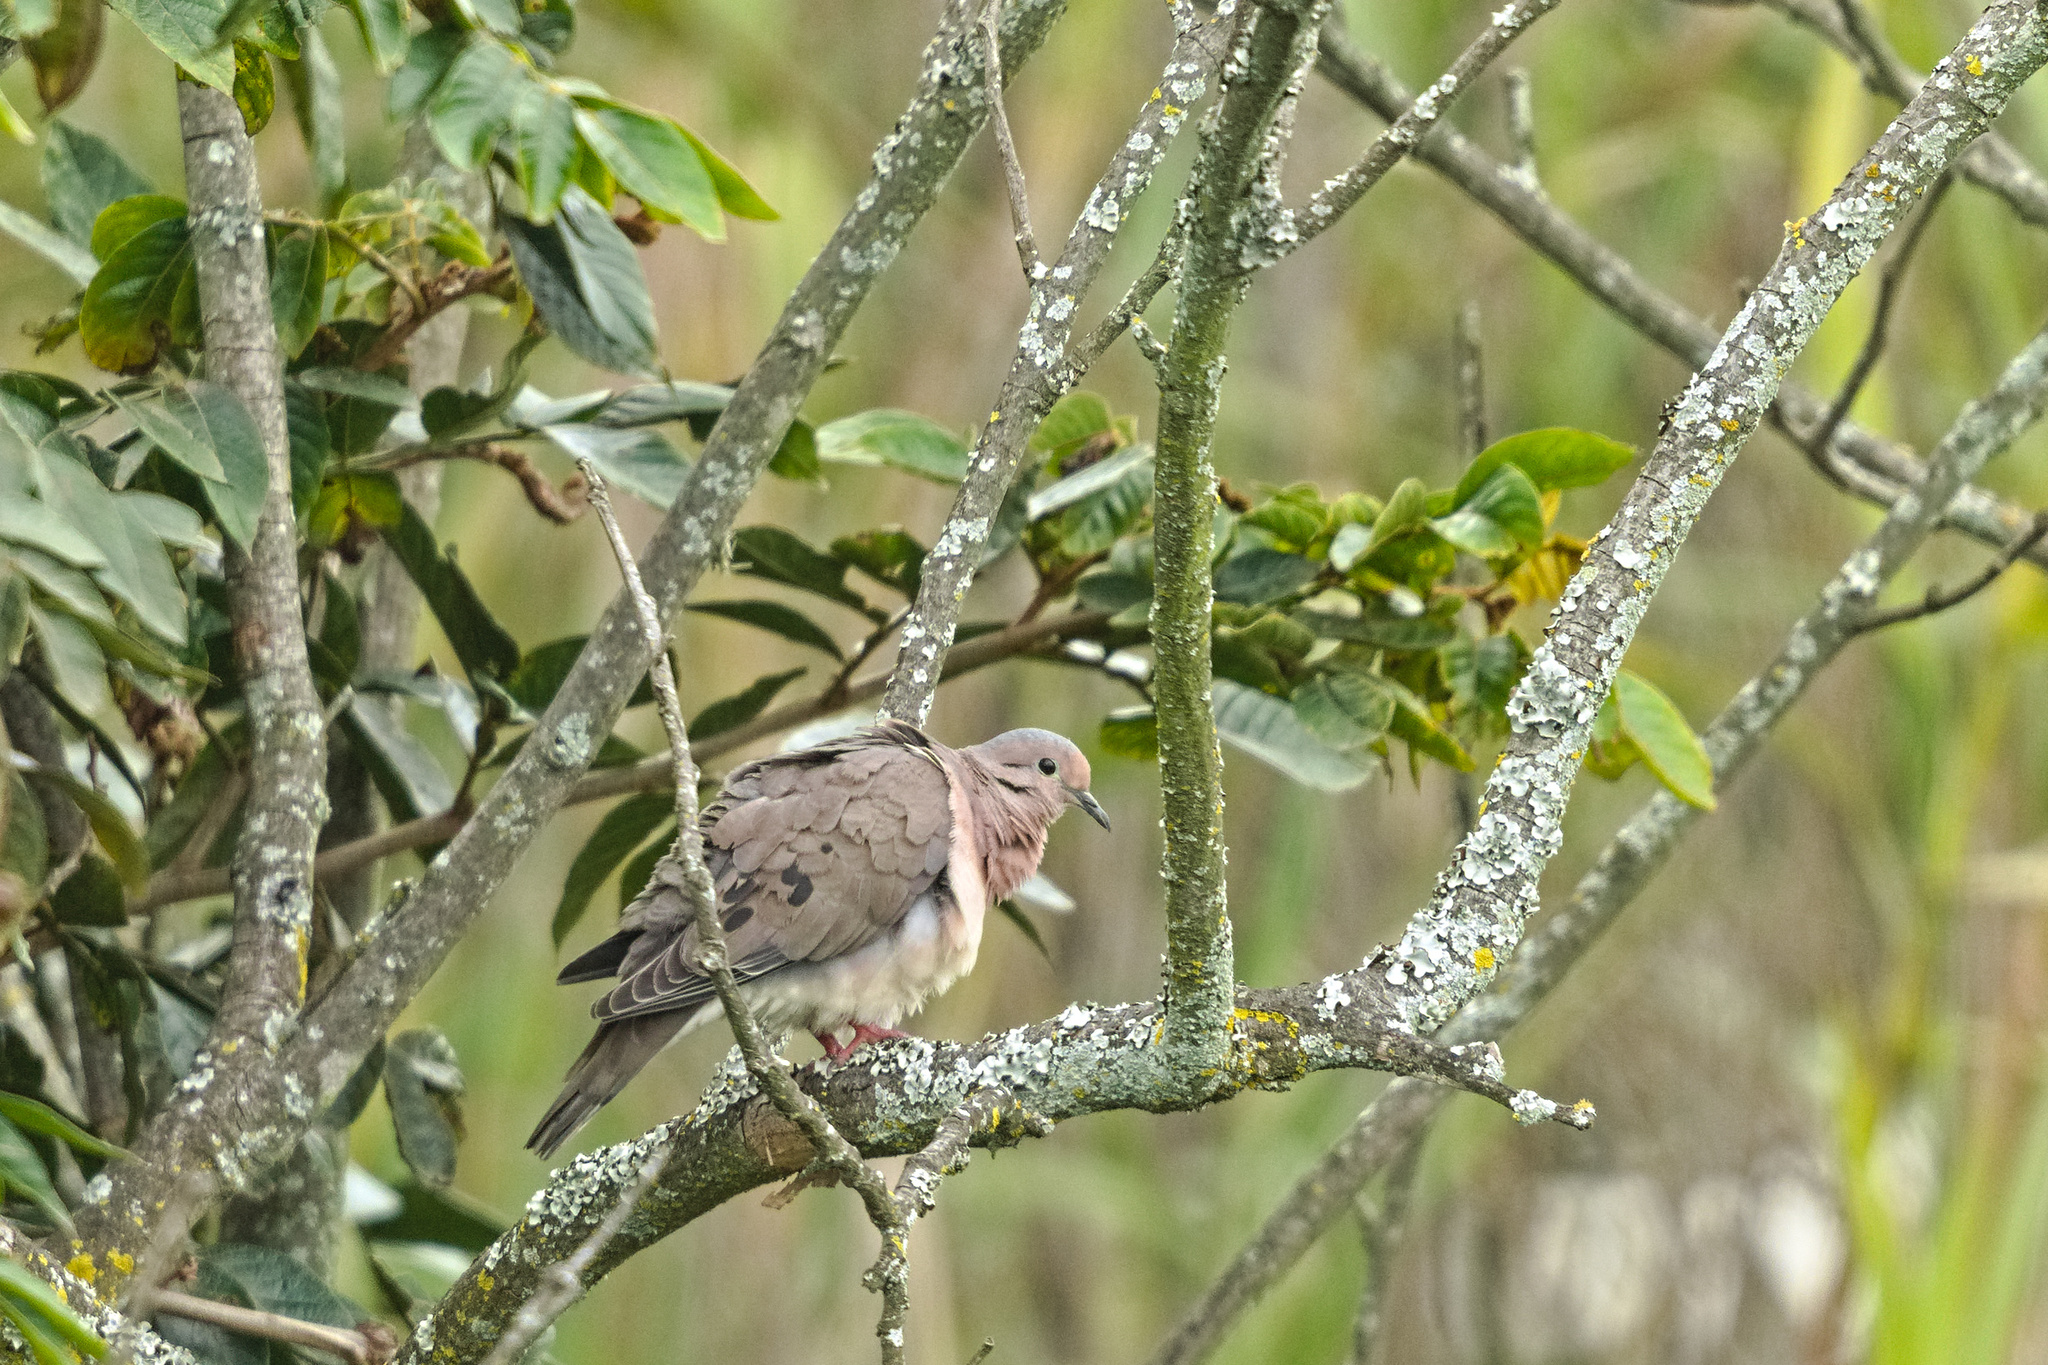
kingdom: Animalia
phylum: Chordata
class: Aves
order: Columbiformes
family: Columbidae
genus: Zenaida
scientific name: Zenaida auriculata
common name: Eared dove
